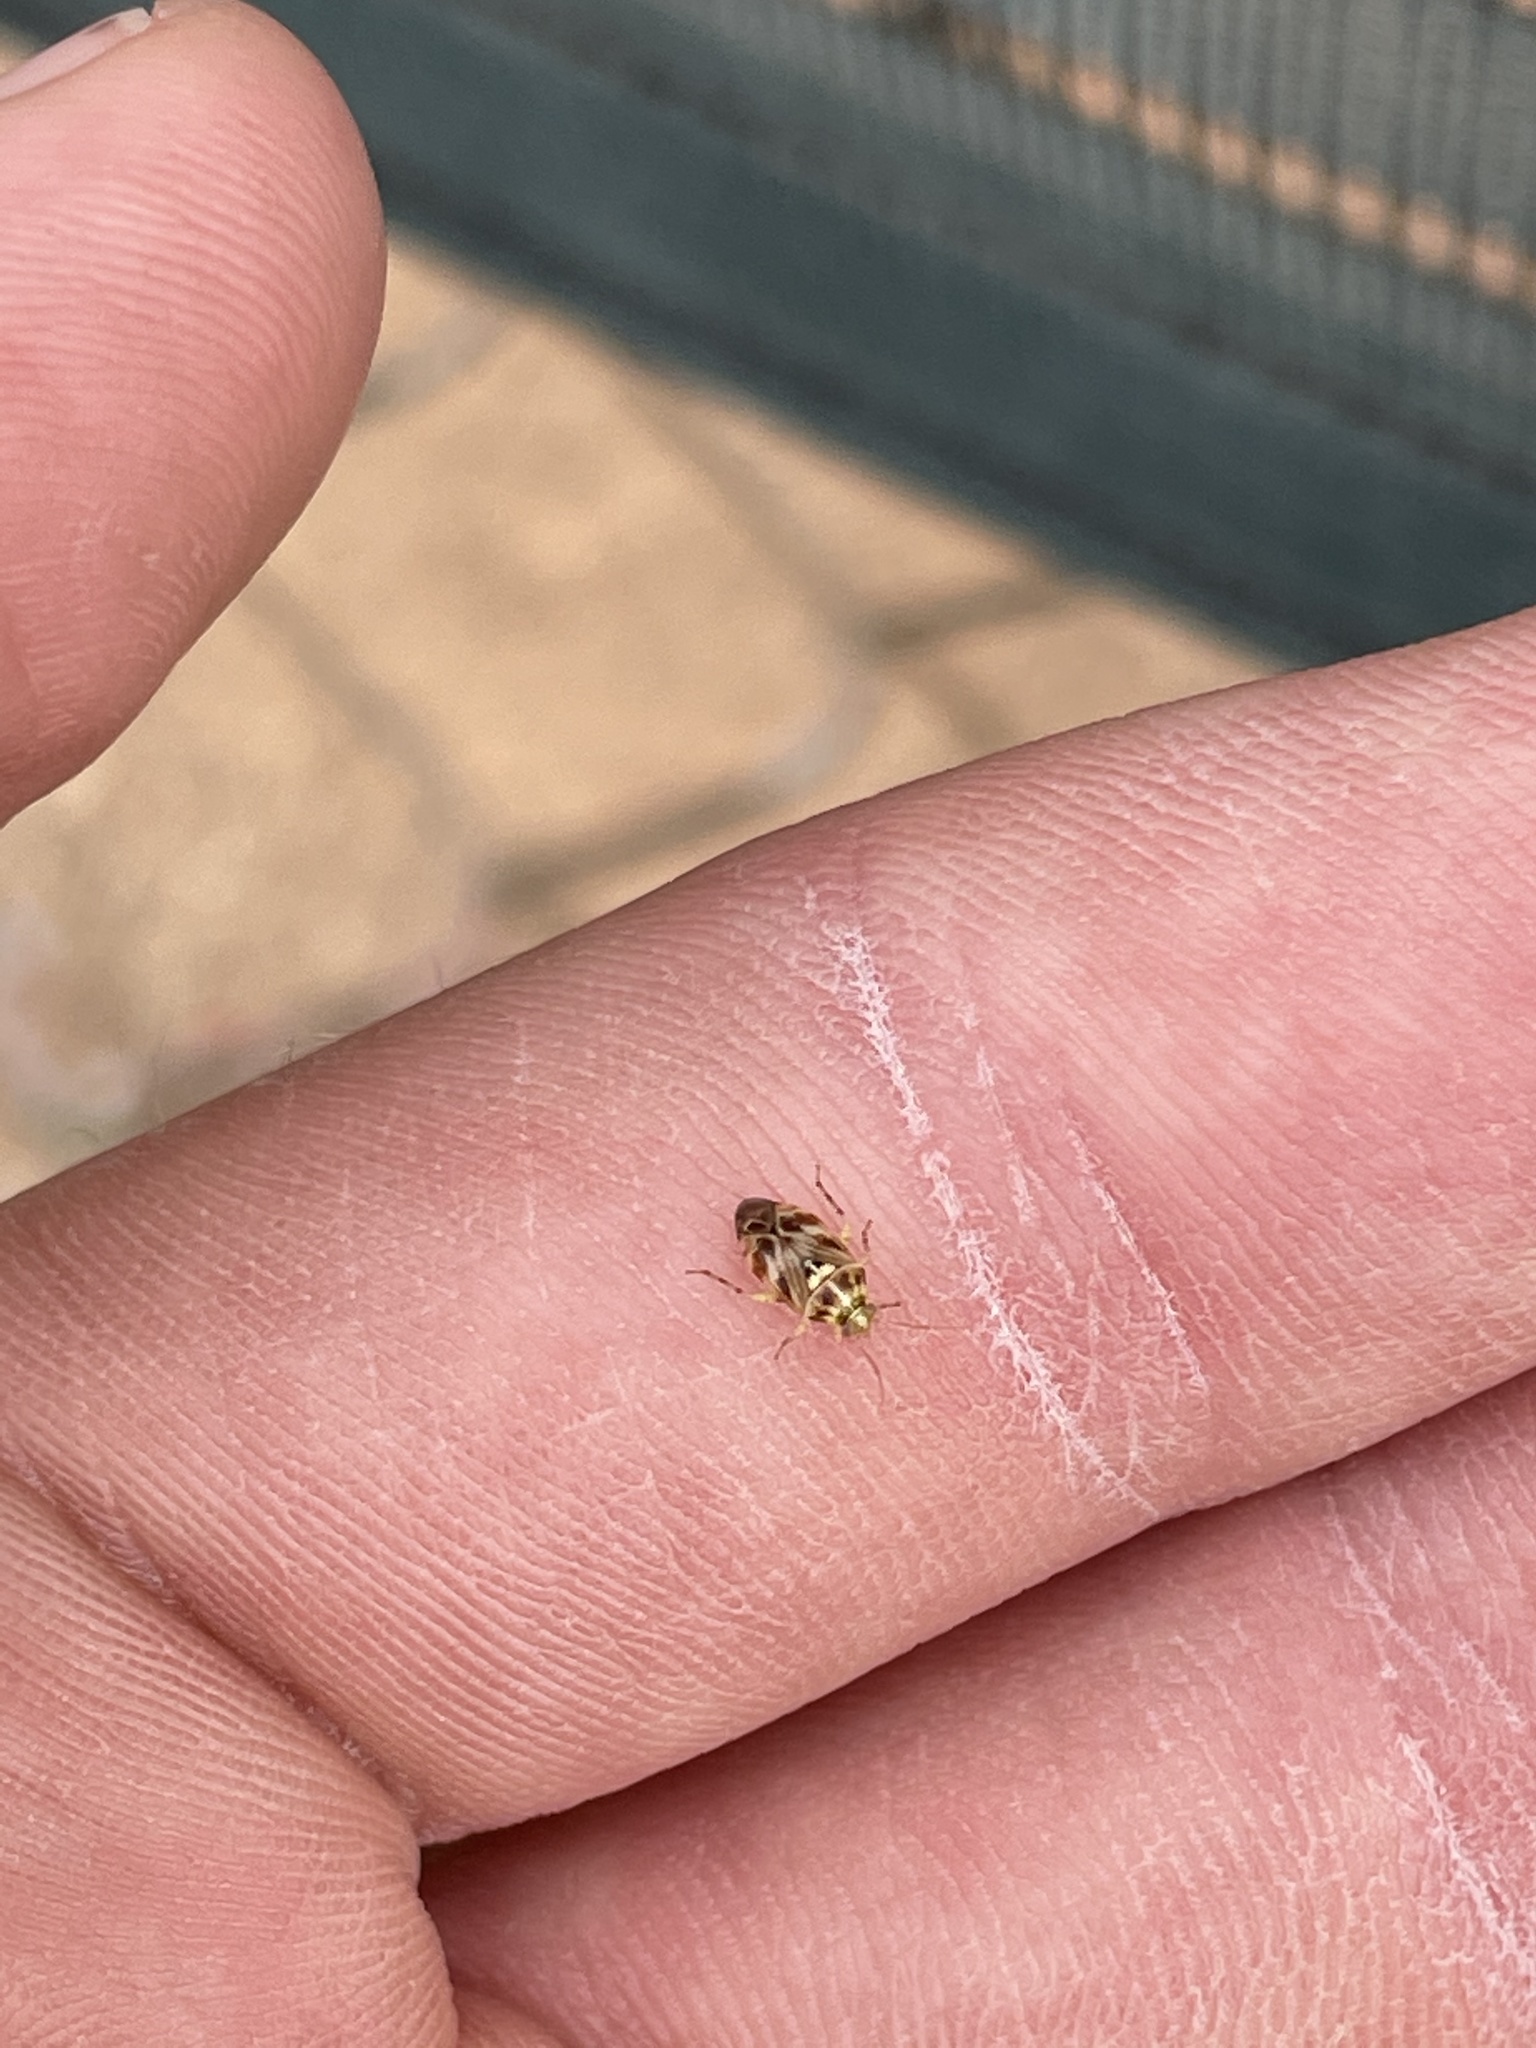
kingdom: Animalia
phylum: Arthropoda
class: Insecta
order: Hemiptera
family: Miridae
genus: Tropidosteptes
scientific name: Tropidosteptes quercicola
